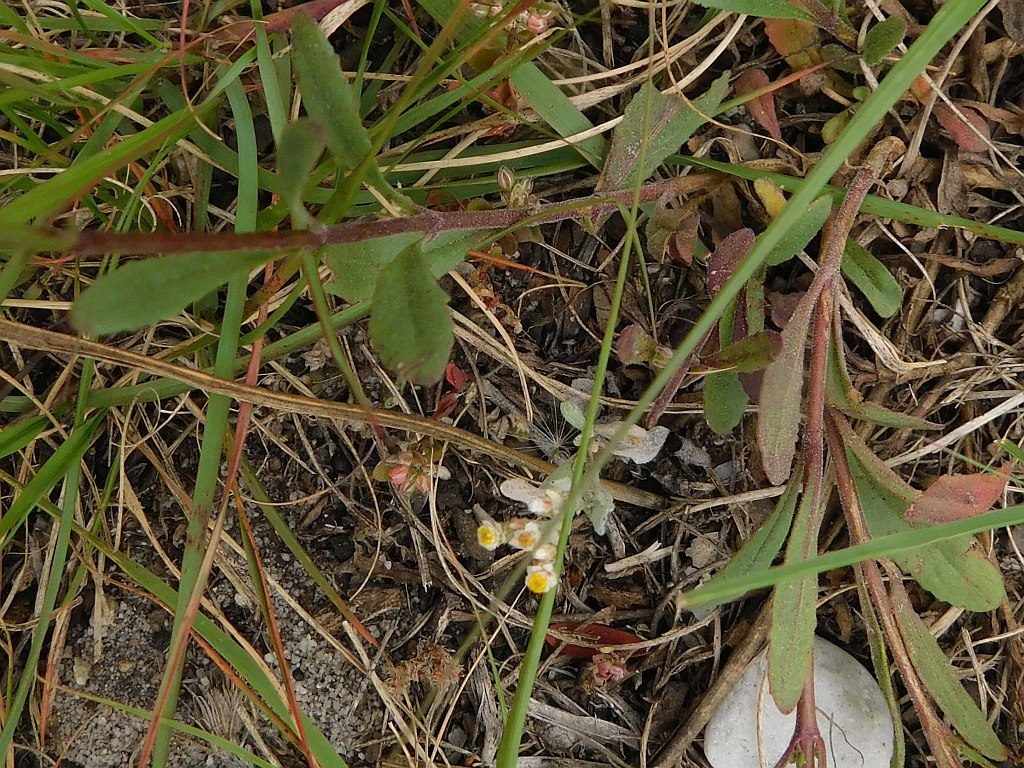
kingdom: Plantae
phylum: Tracheophyta
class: Magnoliopsida
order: Lamiales
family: Scrophulariaceae
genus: Manulea
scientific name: Manulea rubra
